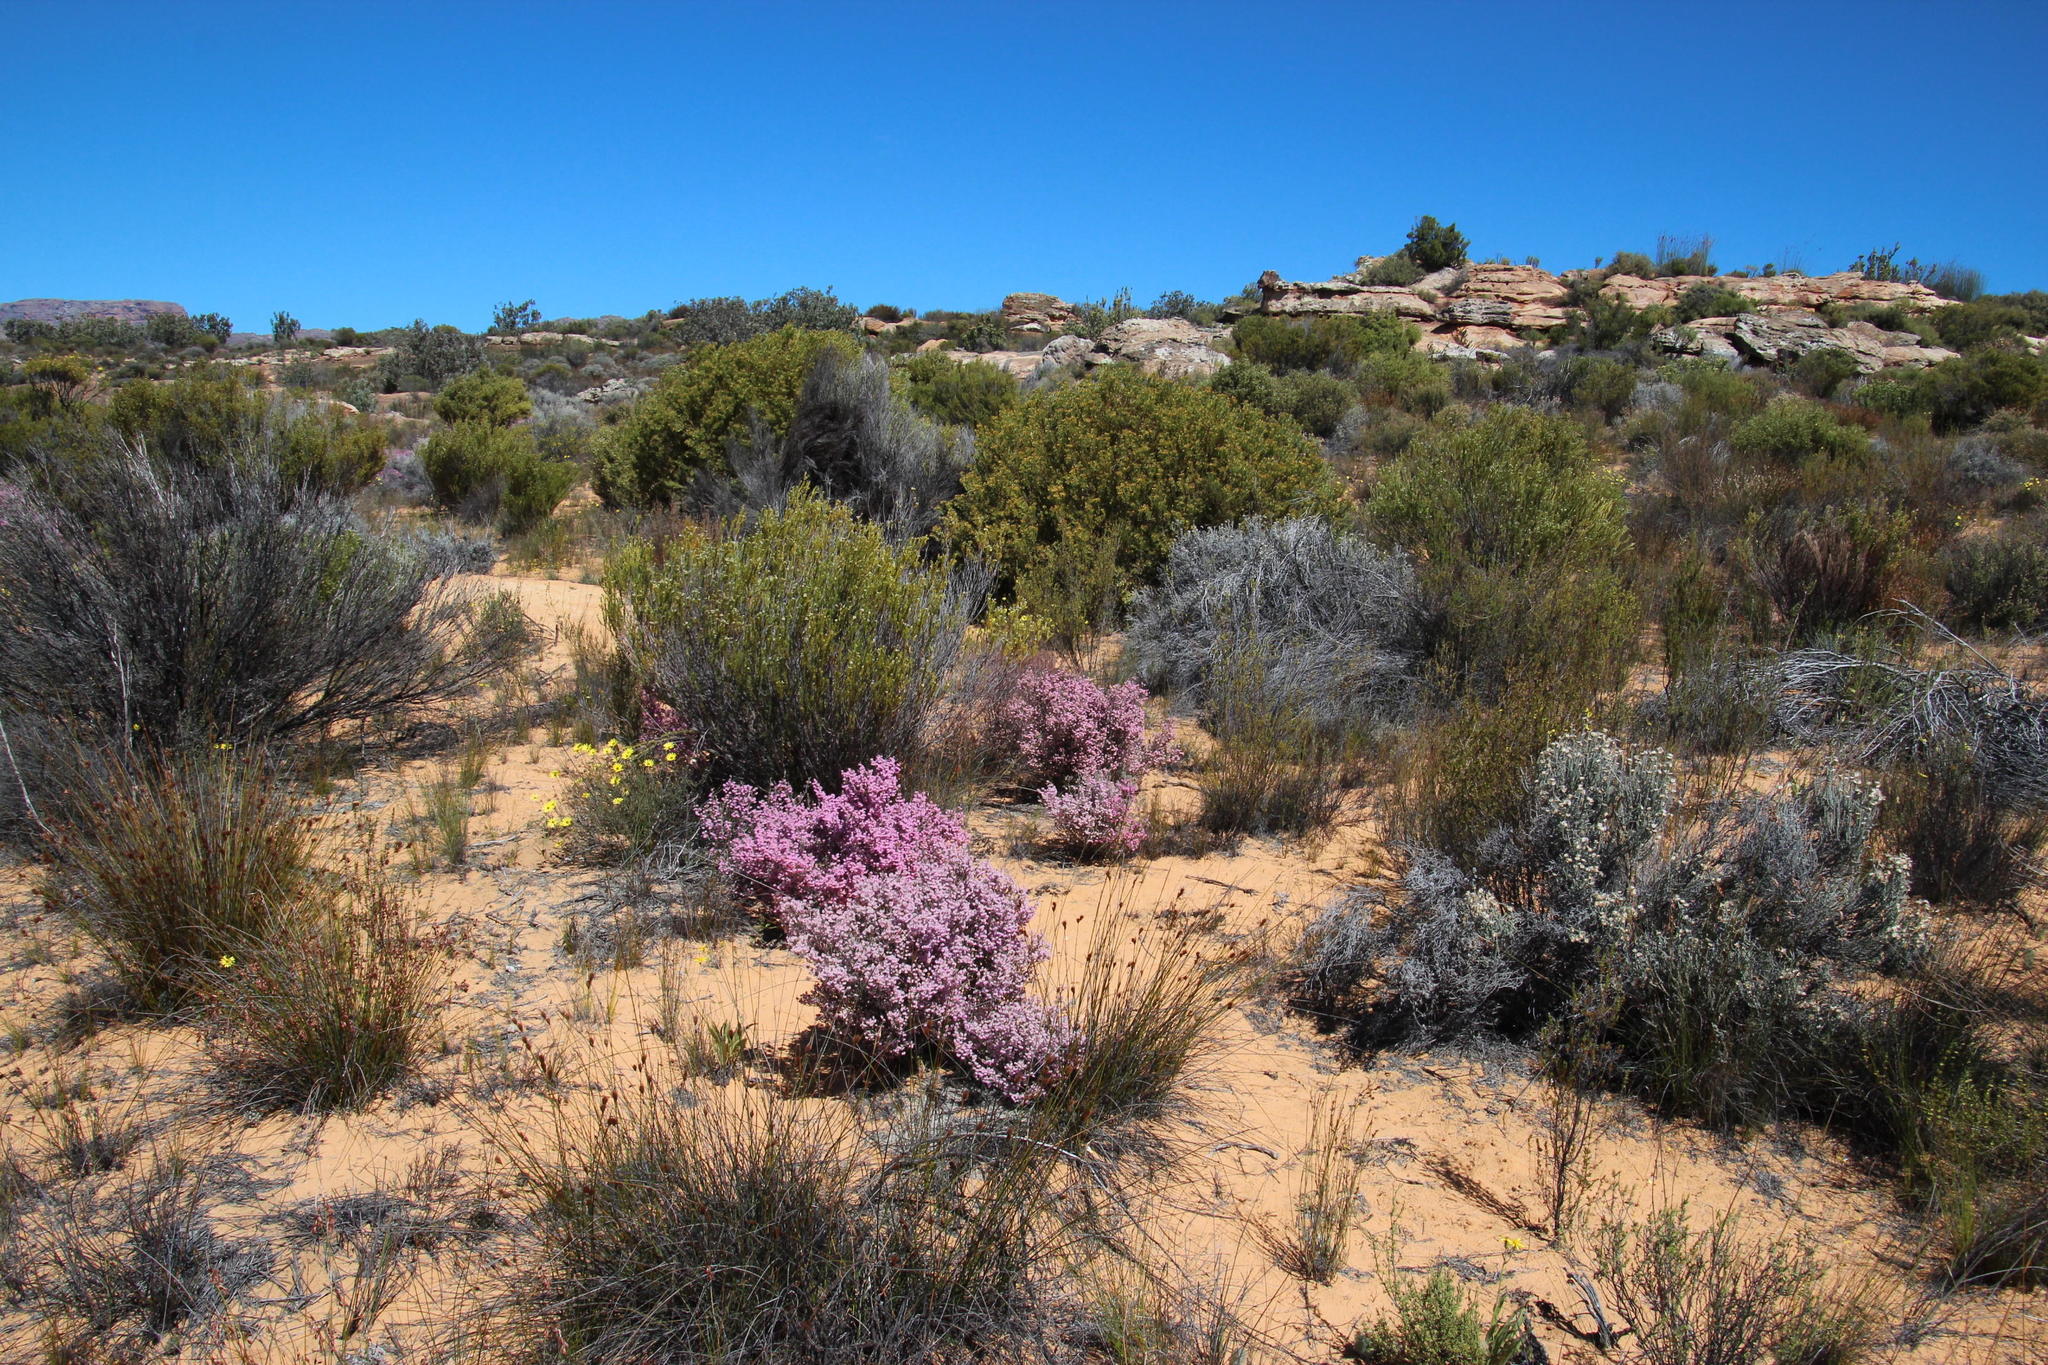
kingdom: Plantae
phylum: Tracheophyta
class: Magnoliopsida
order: Ericales
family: Ericaceae
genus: Erica
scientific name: Erica plumosa
